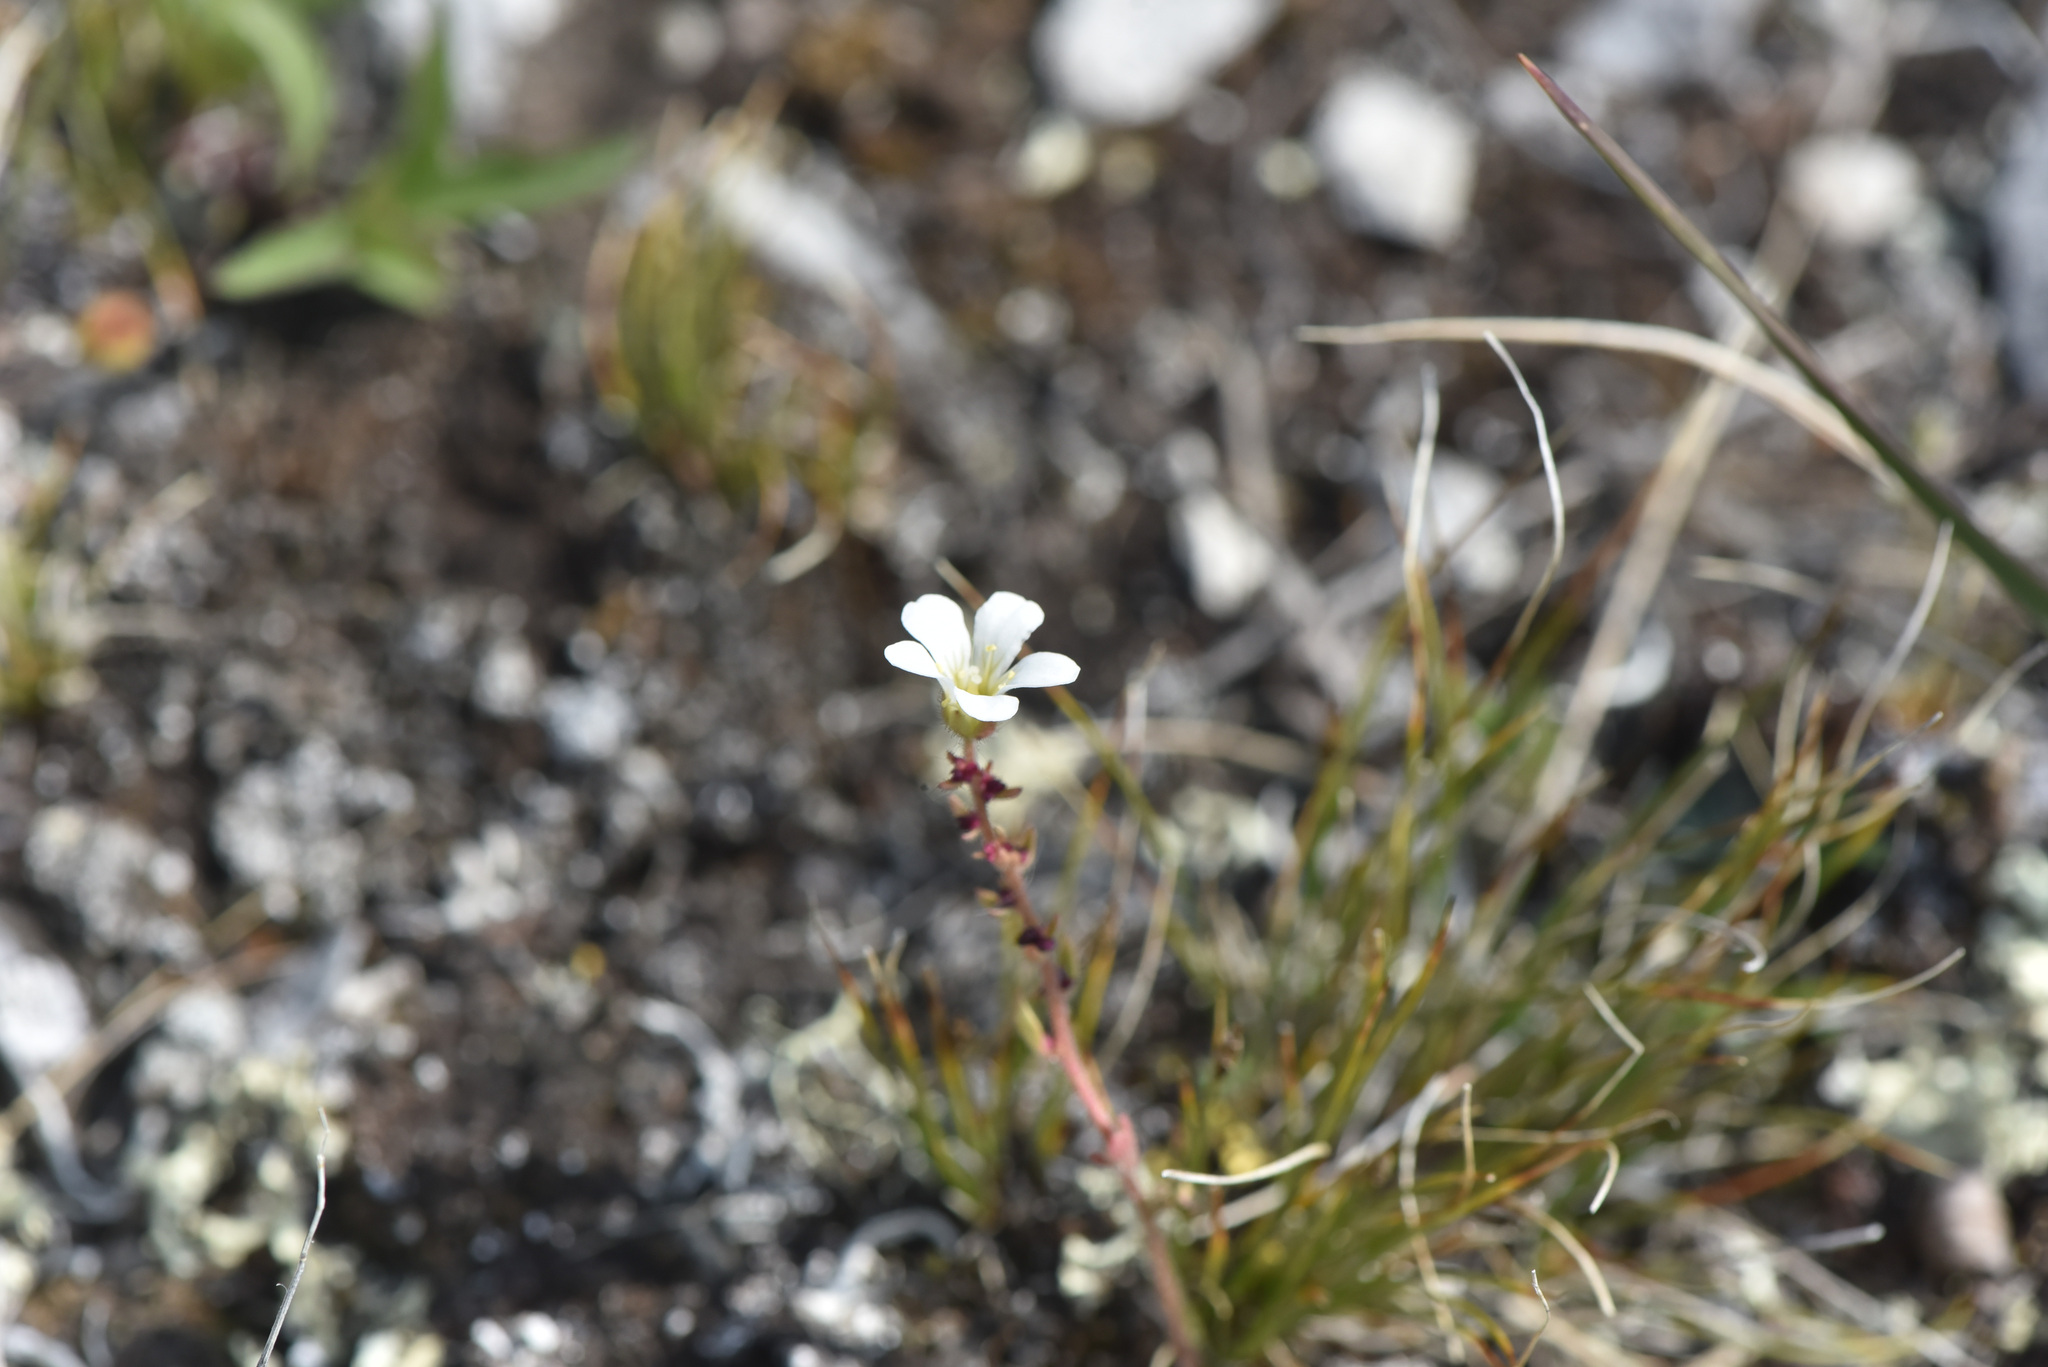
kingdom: Plantae
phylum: Tracheophyta
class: Magnoliopsida
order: Saxifragales
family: Saxifragaceae
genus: Saxifraga
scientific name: Saxifraga cernua
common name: Drooping saxifrage
